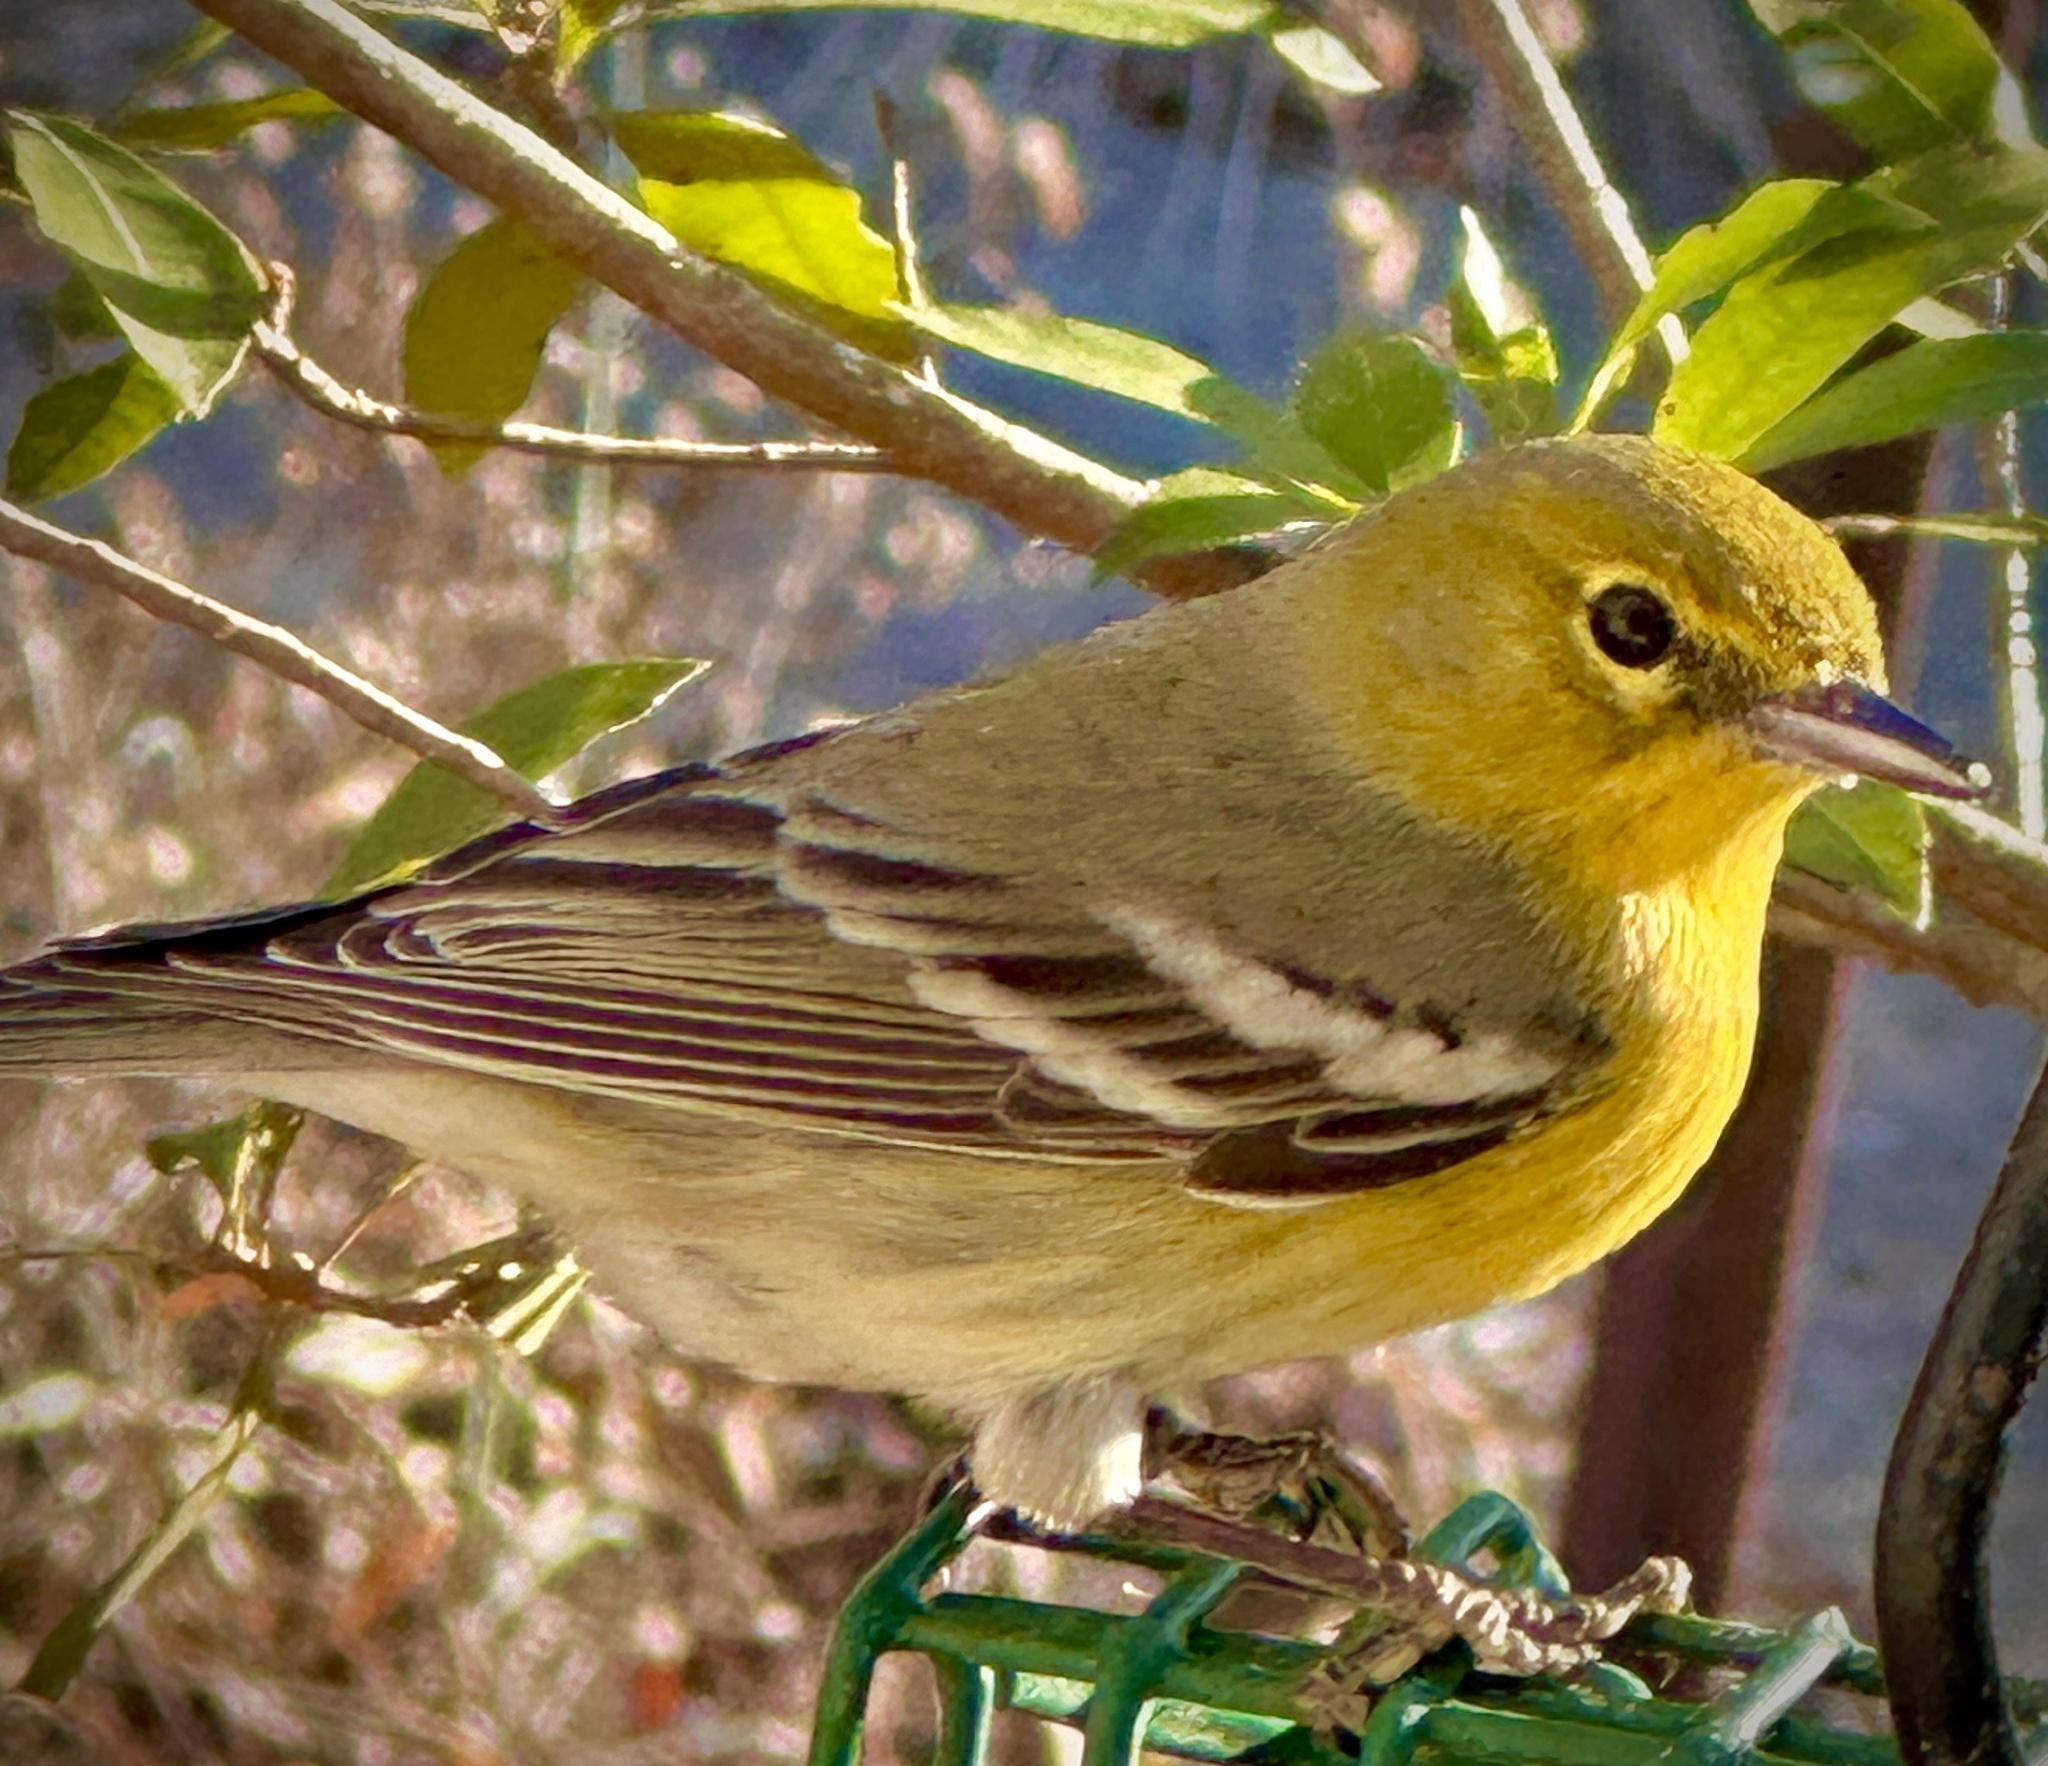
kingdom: Animalia
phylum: Chordata
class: Aves
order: Passeriformes
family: Parulidae
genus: Setophaga
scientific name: Setophaga pinus
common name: Pine warbler
